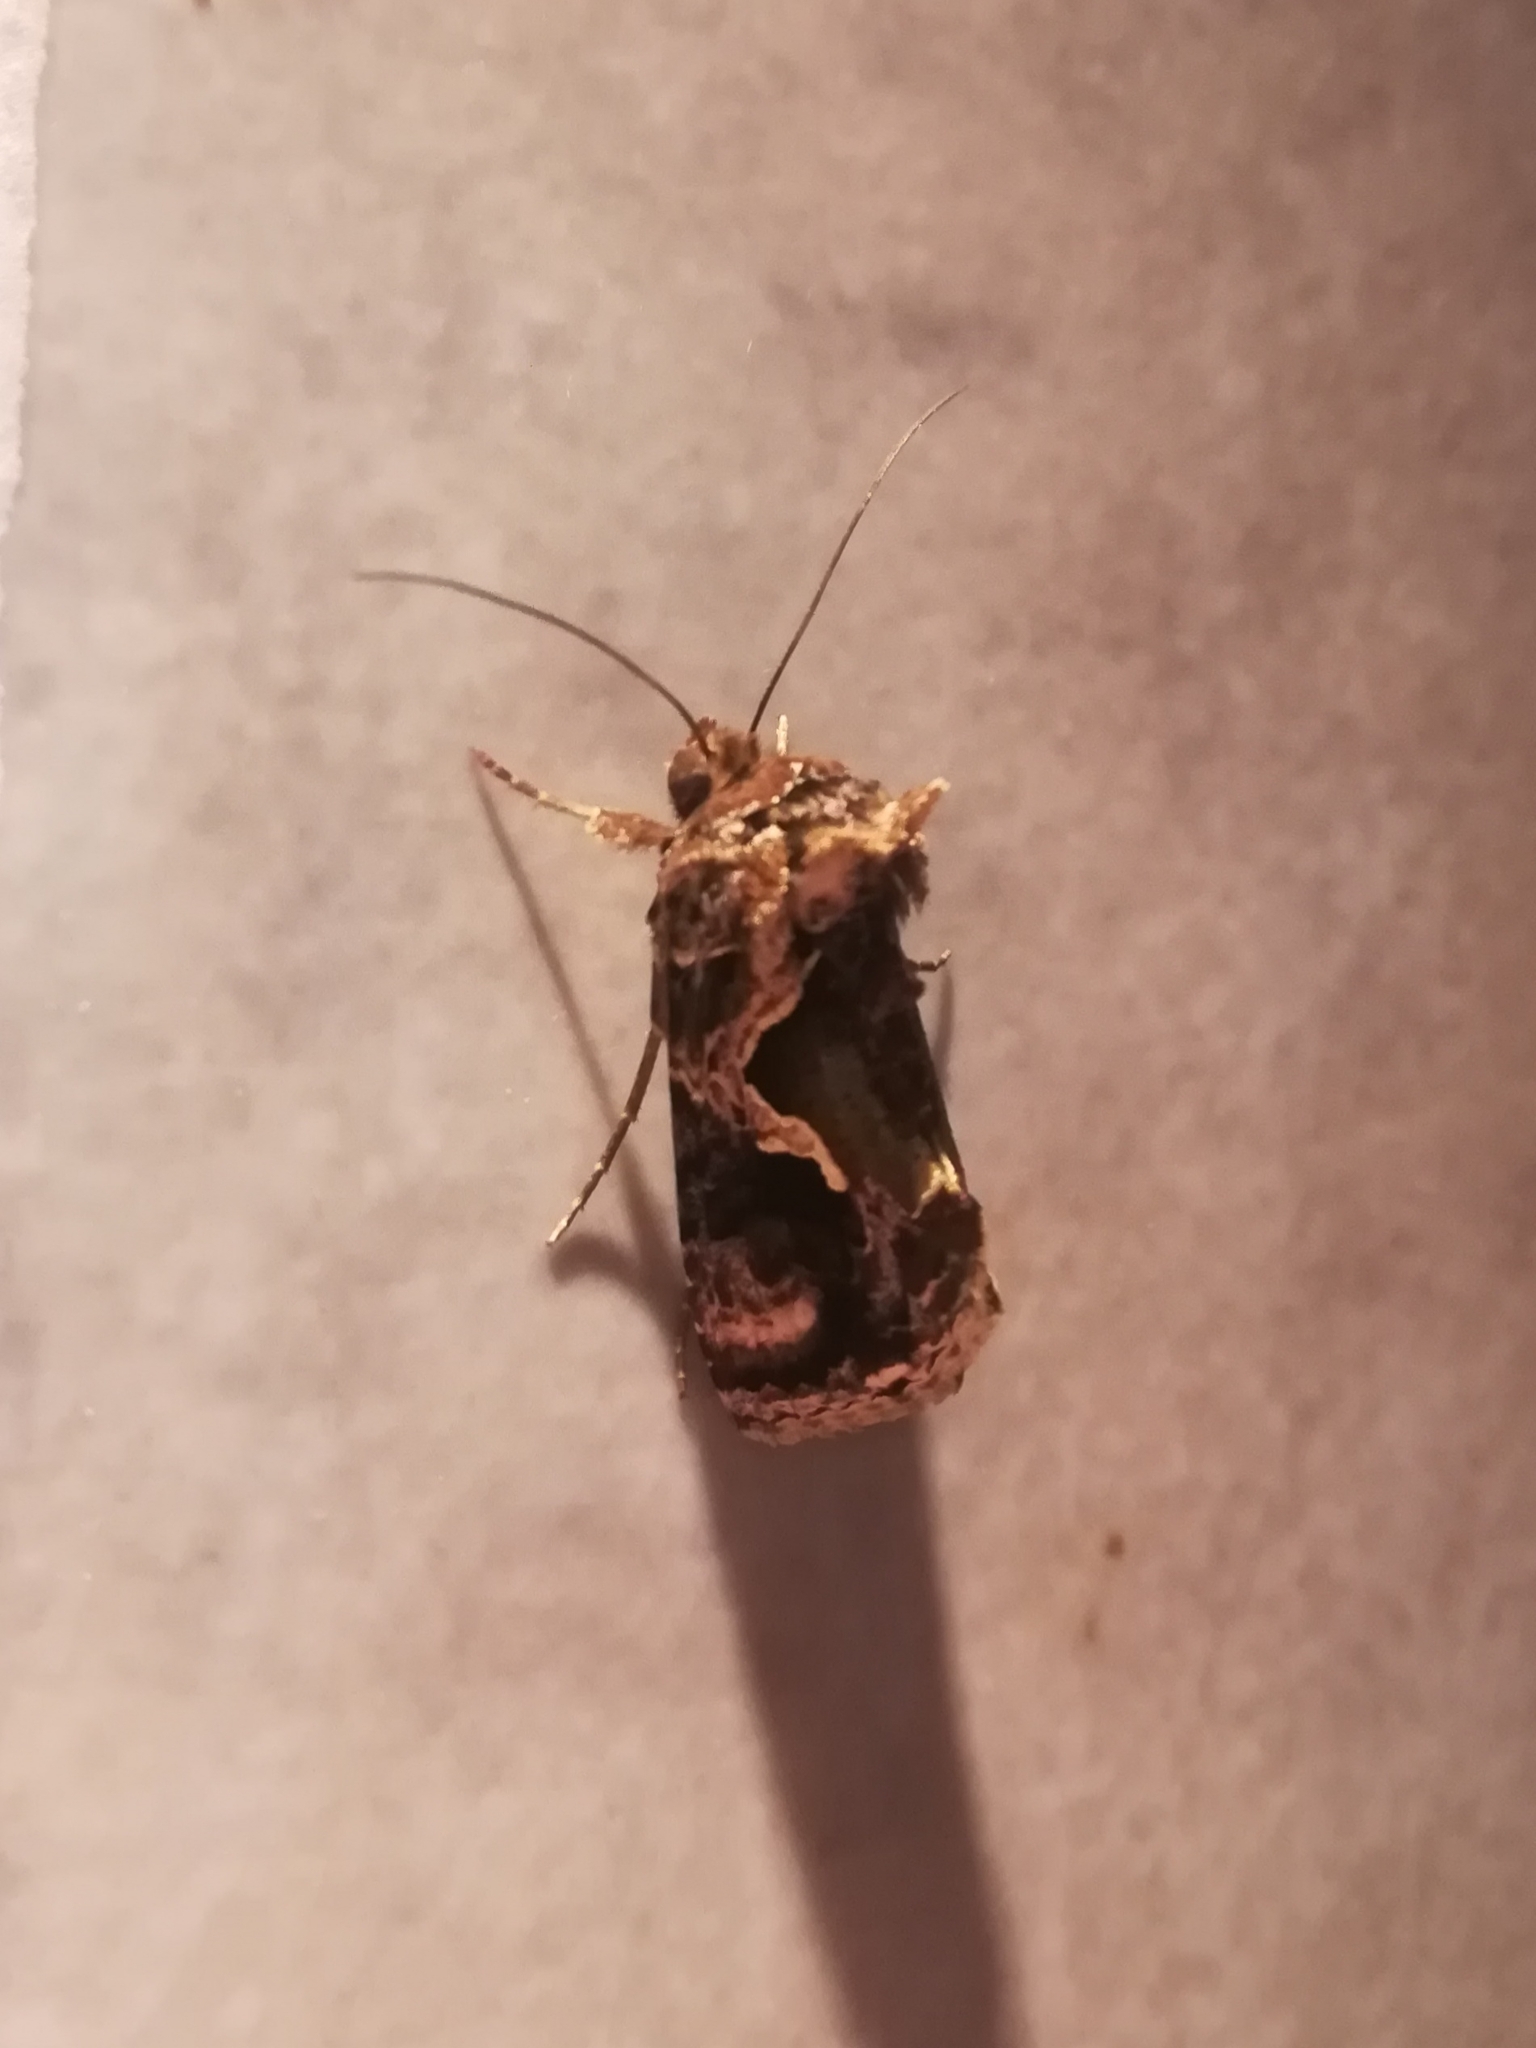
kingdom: Animalia
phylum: Arthropoda
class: Insecta
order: Lepidoptera
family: Noctuidae
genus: Cornutiplusia
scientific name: Cornutiplusia circumflexa
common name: Yorkshire y
